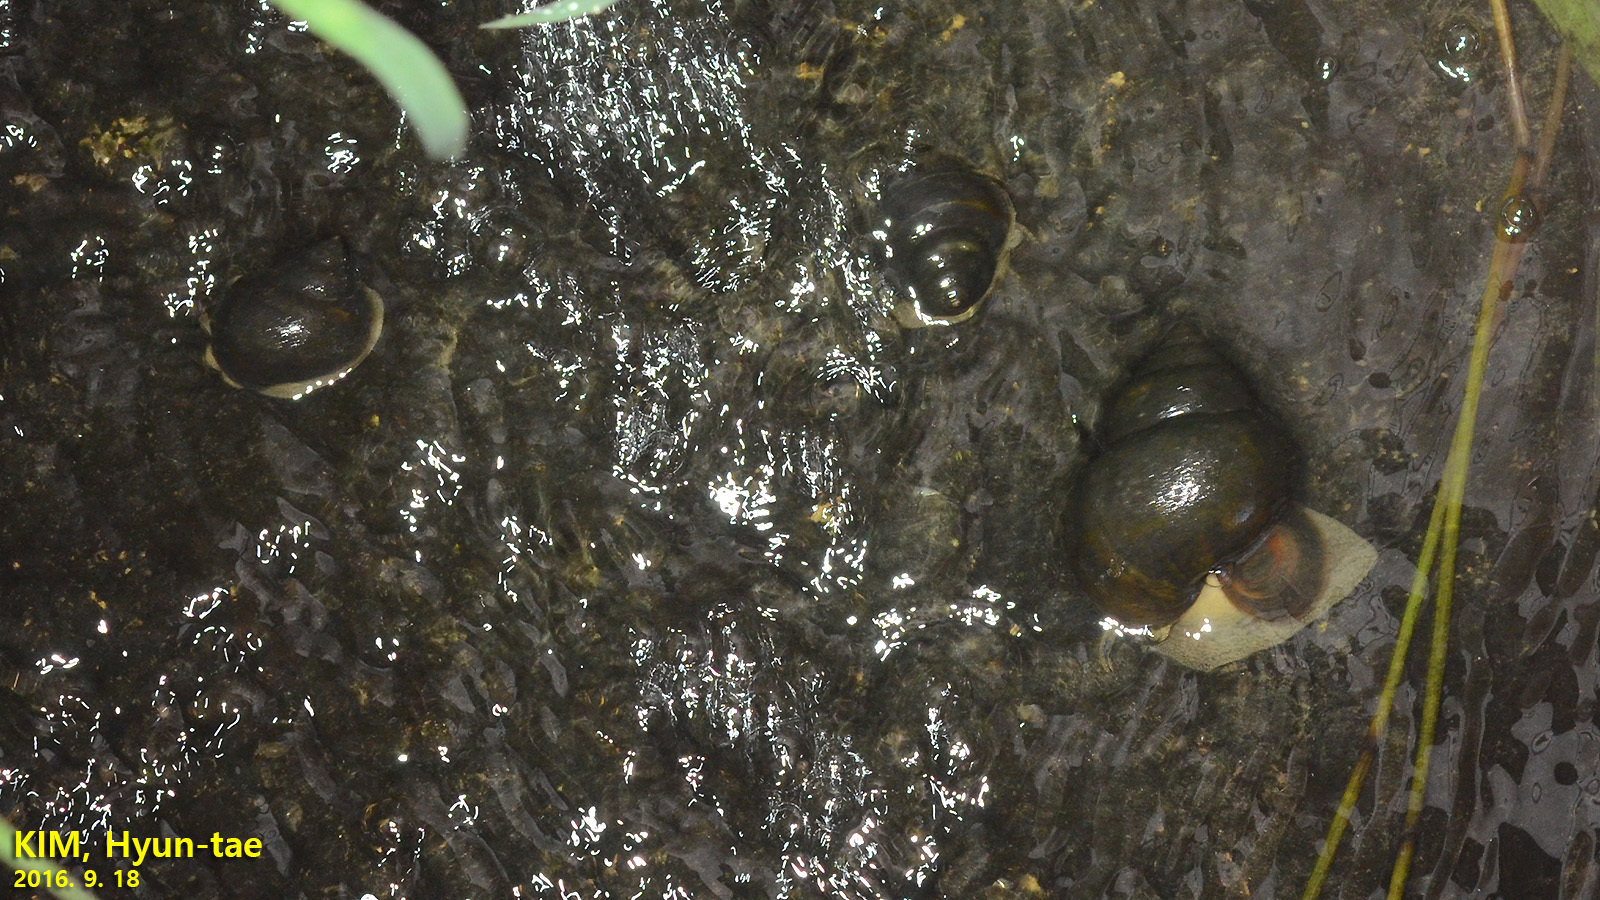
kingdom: Animalia
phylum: Mollusca
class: Gastropoda
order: Architaenioglossa
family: Viviparidae
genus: Cipangopaludina
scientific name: Cipangopaludina chinensis
